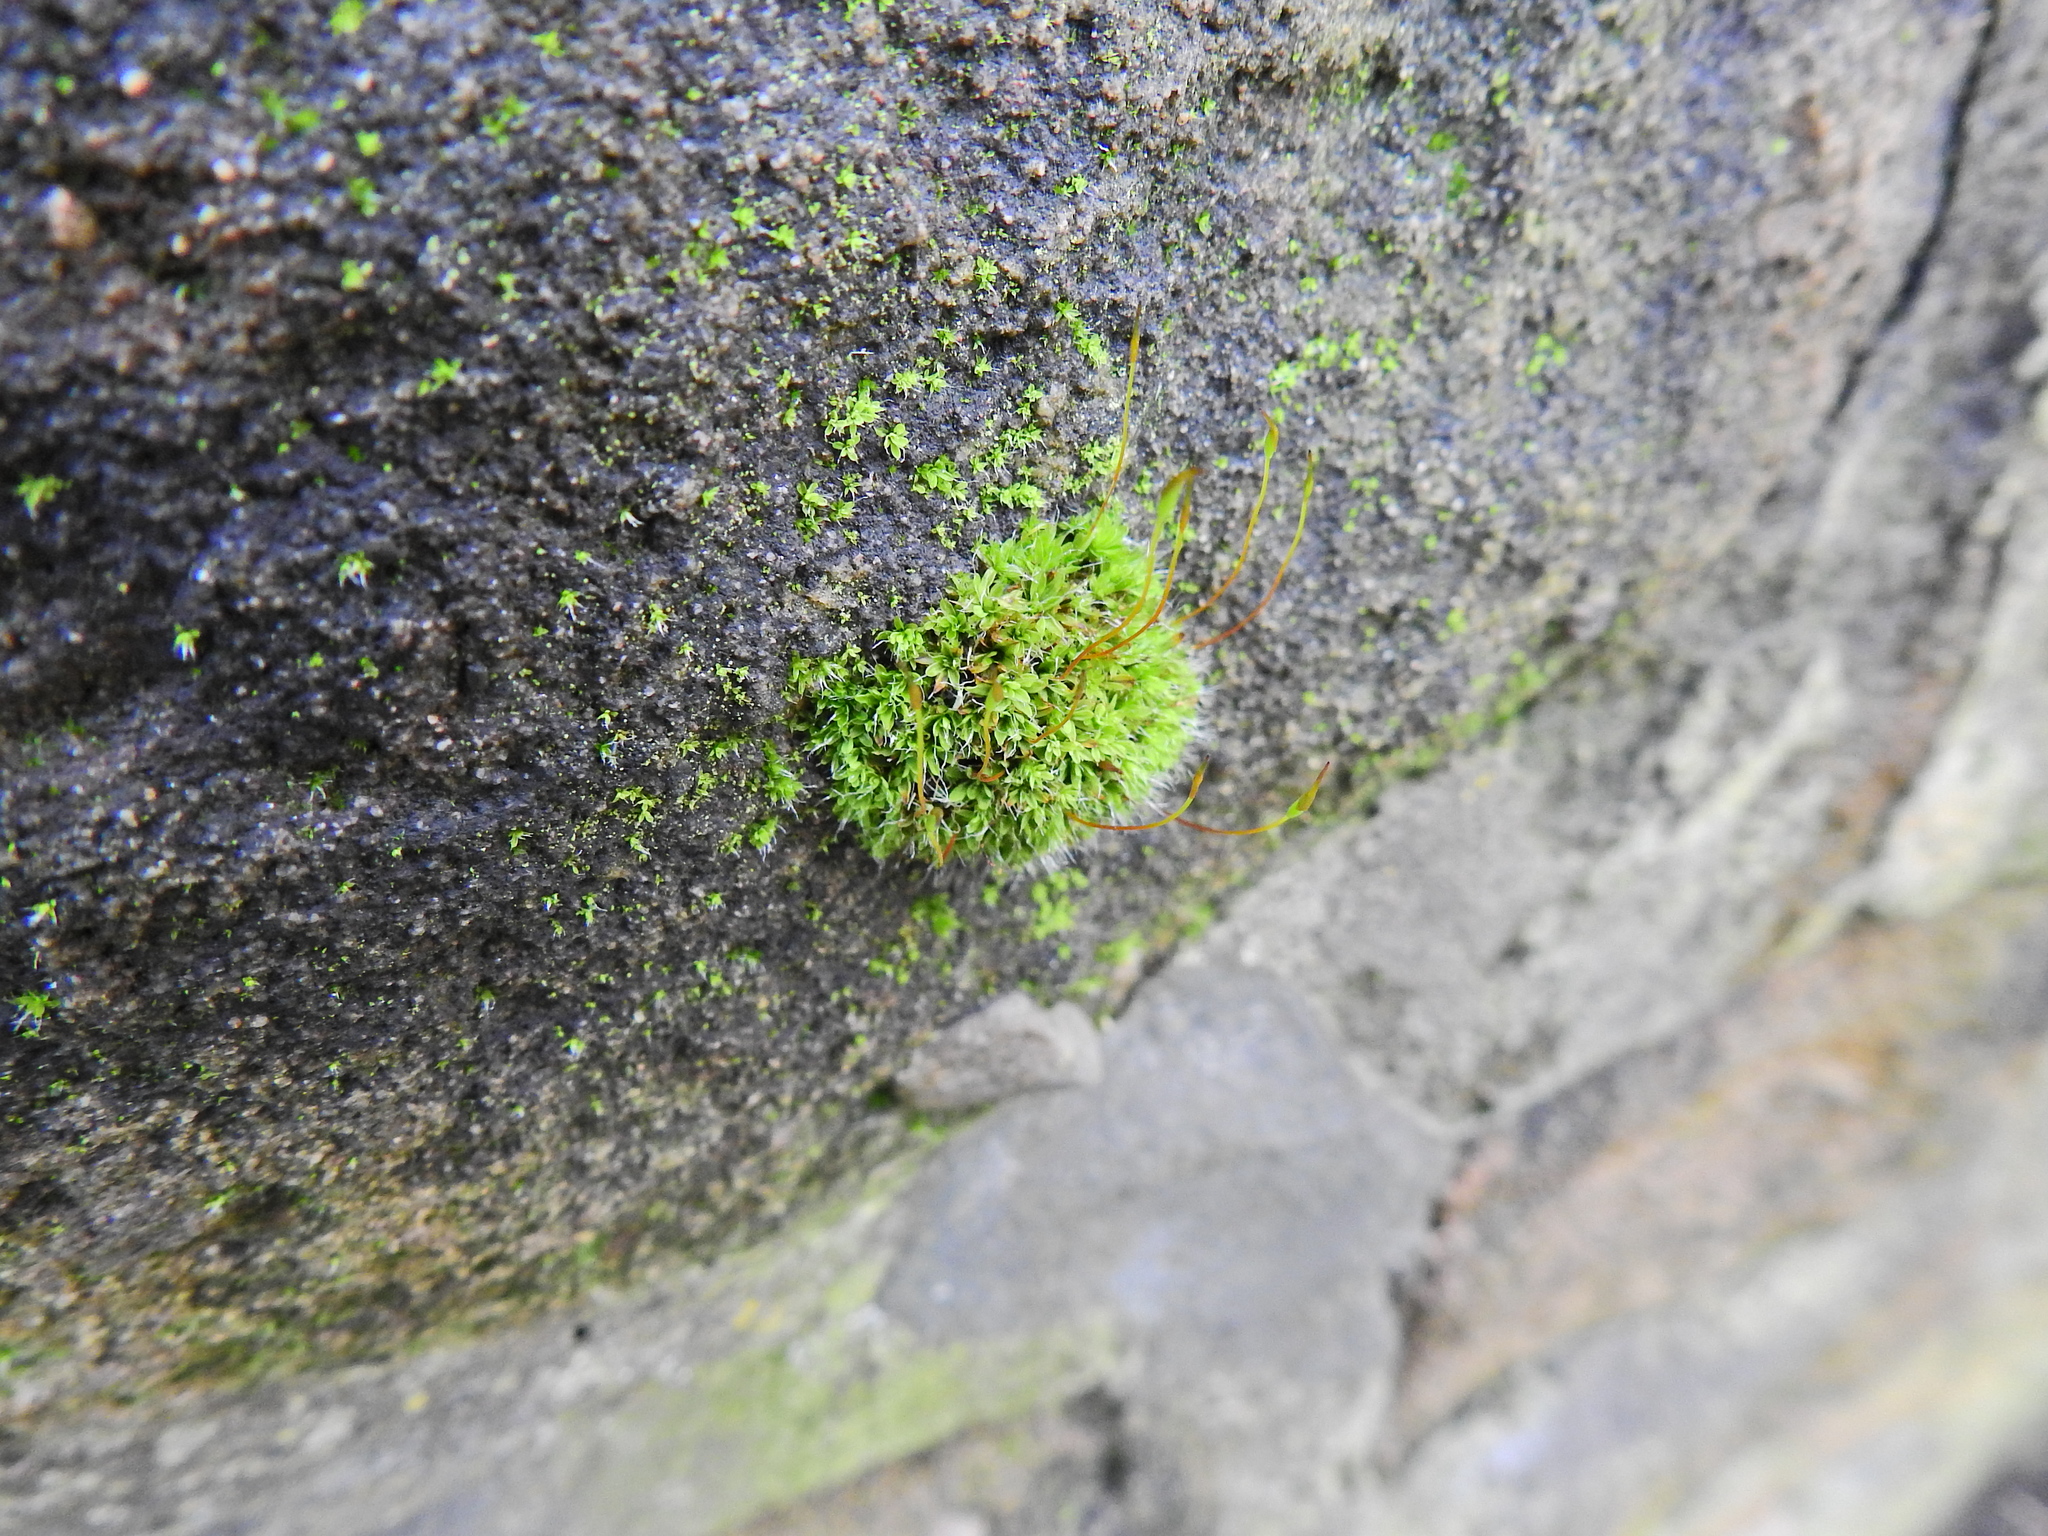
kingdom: Plantae
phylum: Bryophyta
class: Bryopsida
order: Pottiales
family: Pottiaceae
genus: Tortula
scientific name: Tortula muralis
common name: Wall screw-moss
